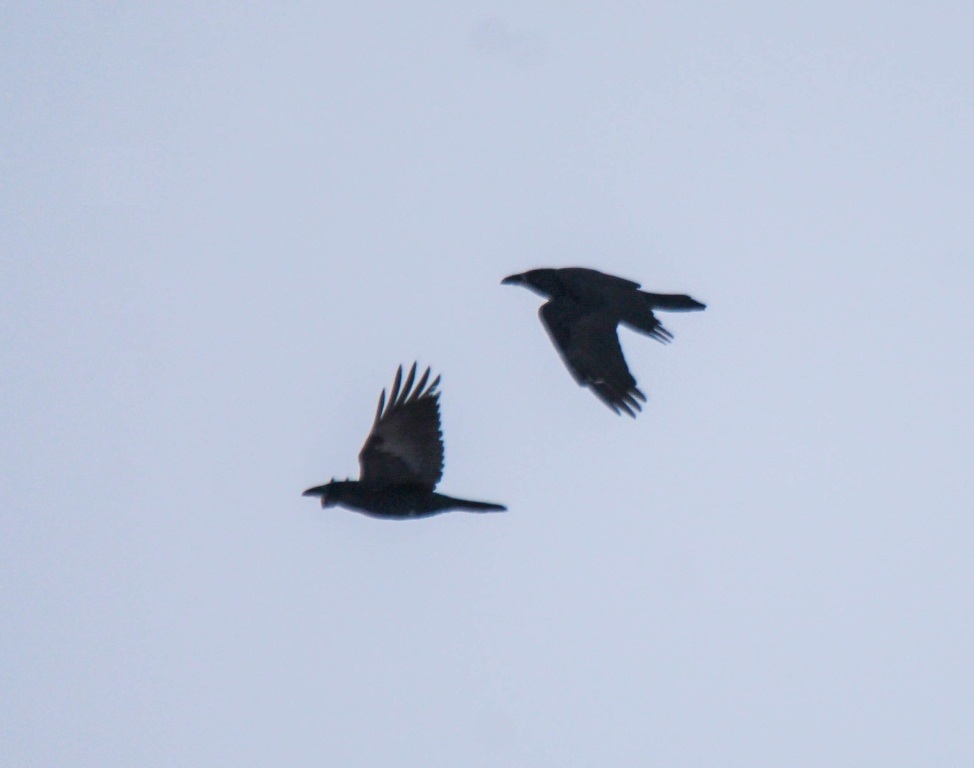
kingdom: Animalia
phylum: Chordata
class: Aves
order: Passeriformes
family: Corvidae
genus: Corvus
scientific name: Corvus corax
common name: Common raven
